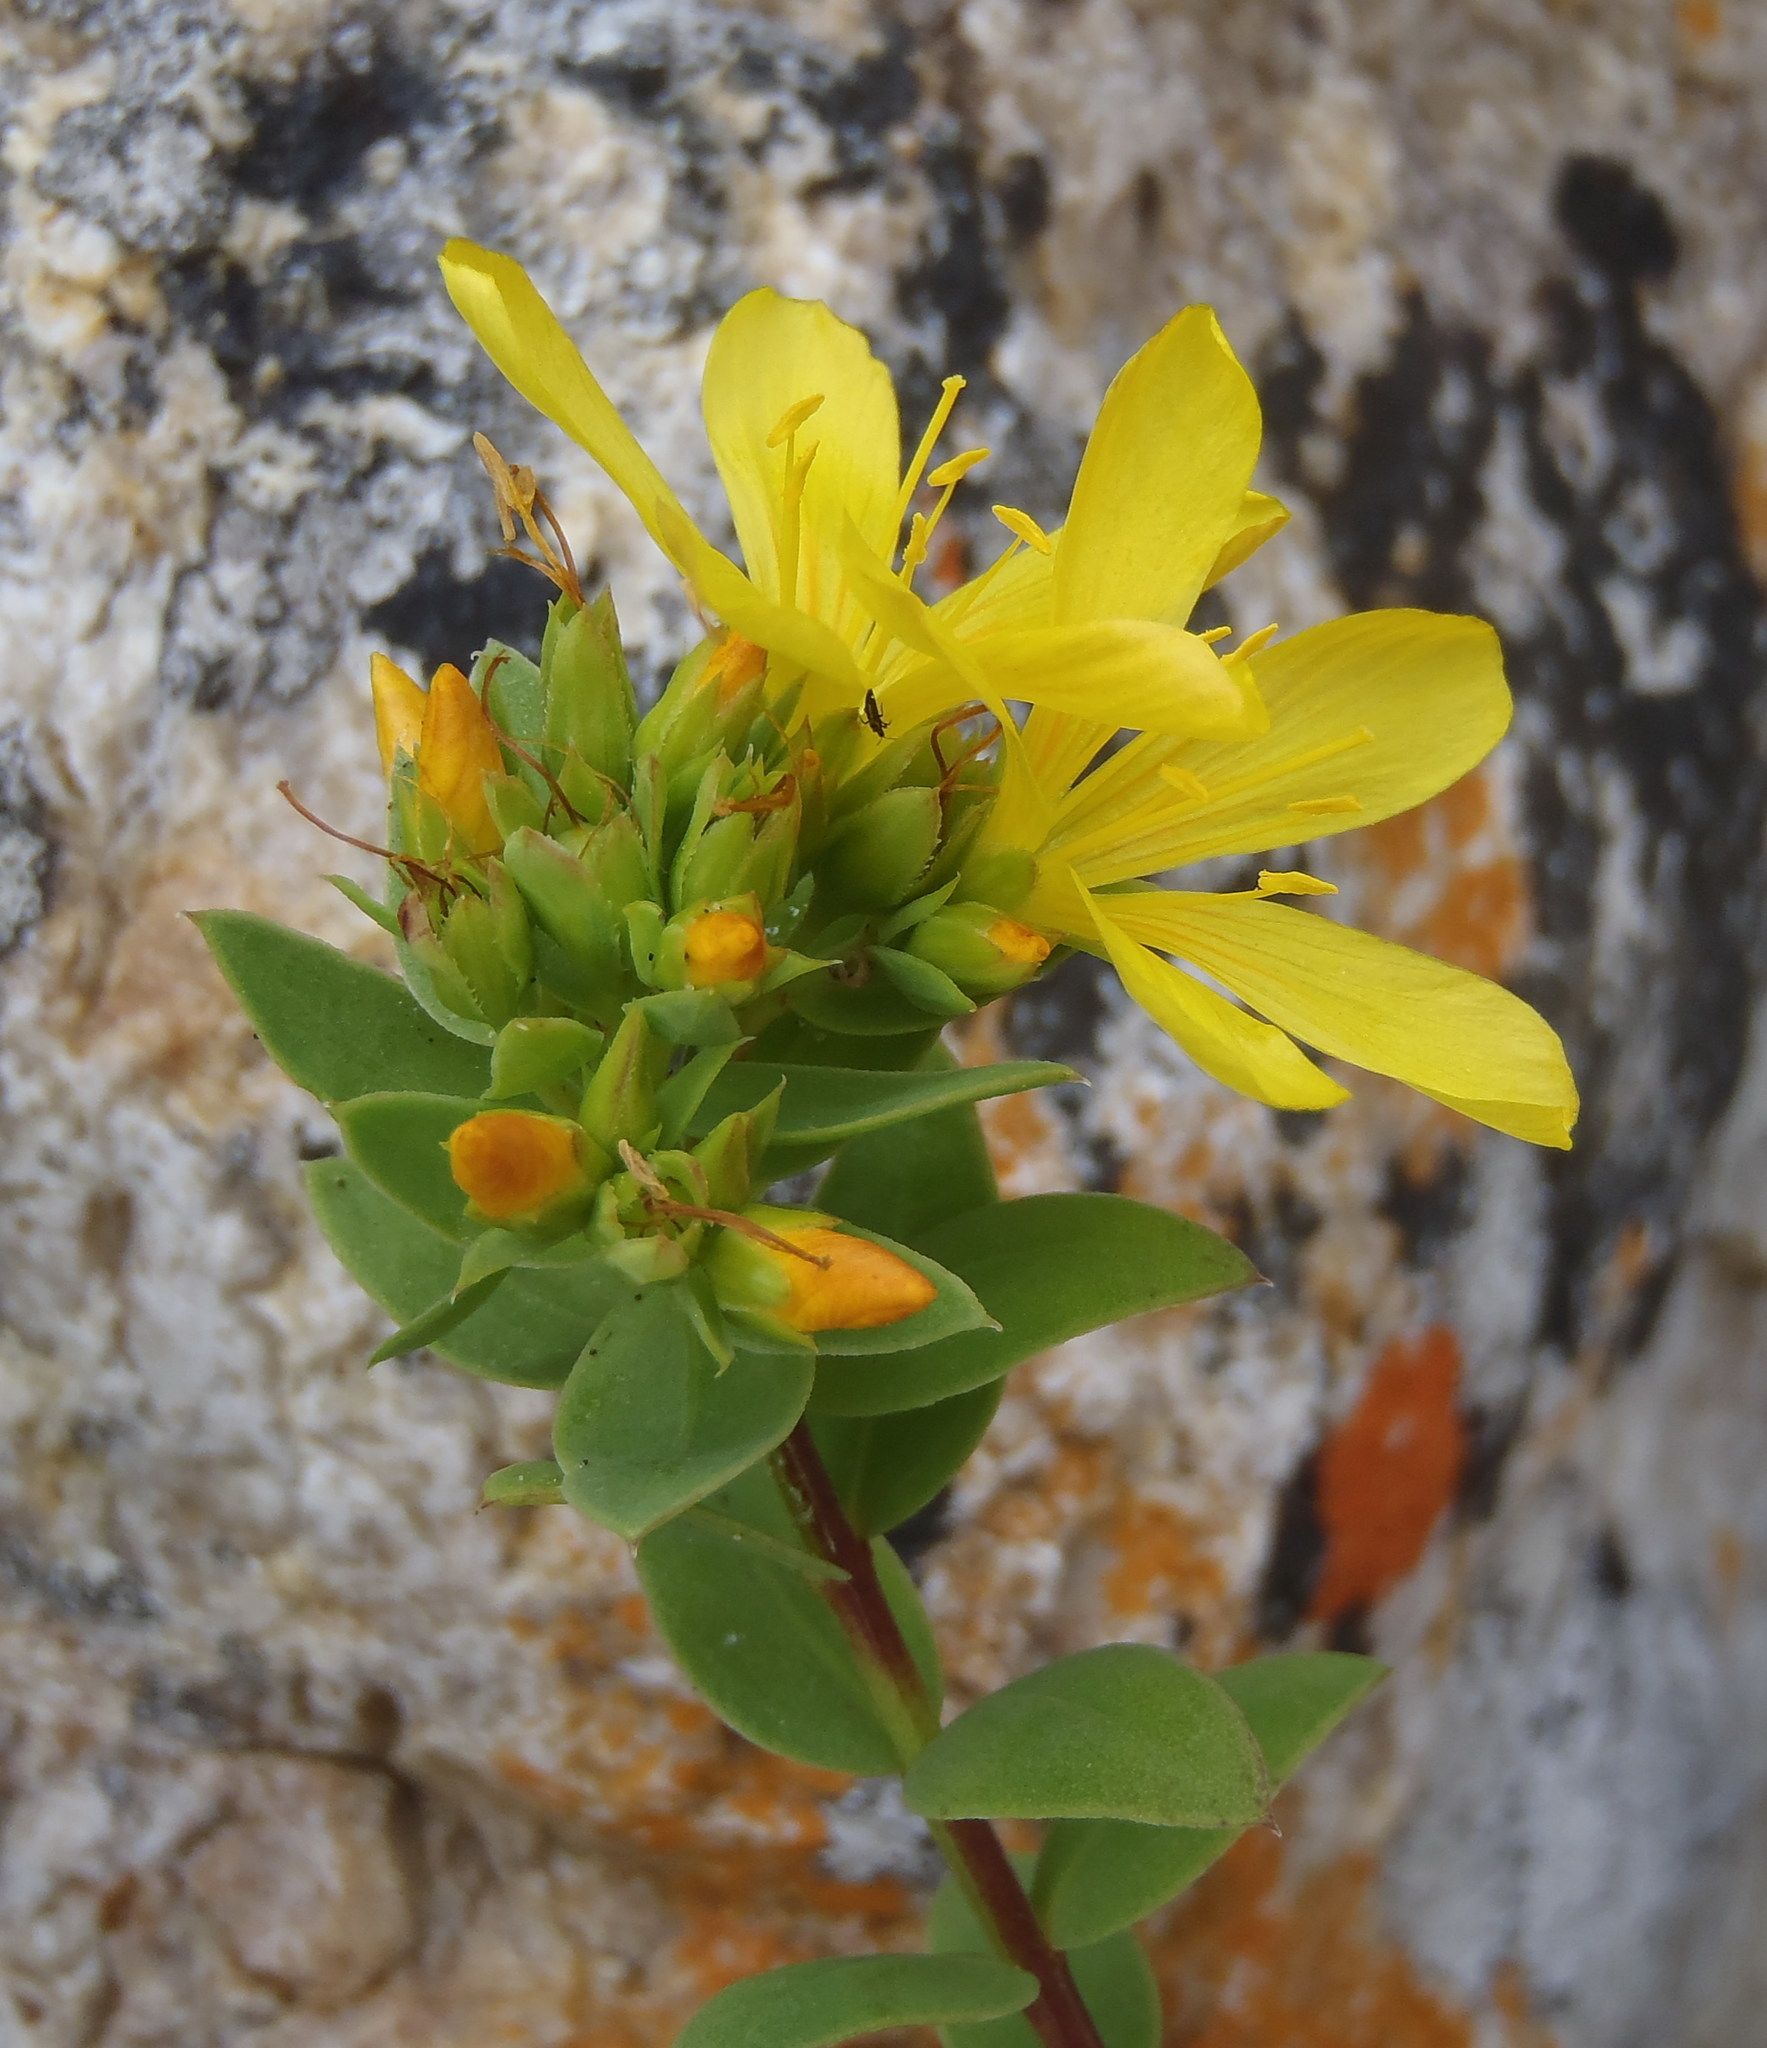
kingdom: Plantae
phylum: Tracheophyta
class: Magnoliopsida
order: Malpighiales
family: Linaceae
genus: Linum
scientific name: Linum aethiopicum
